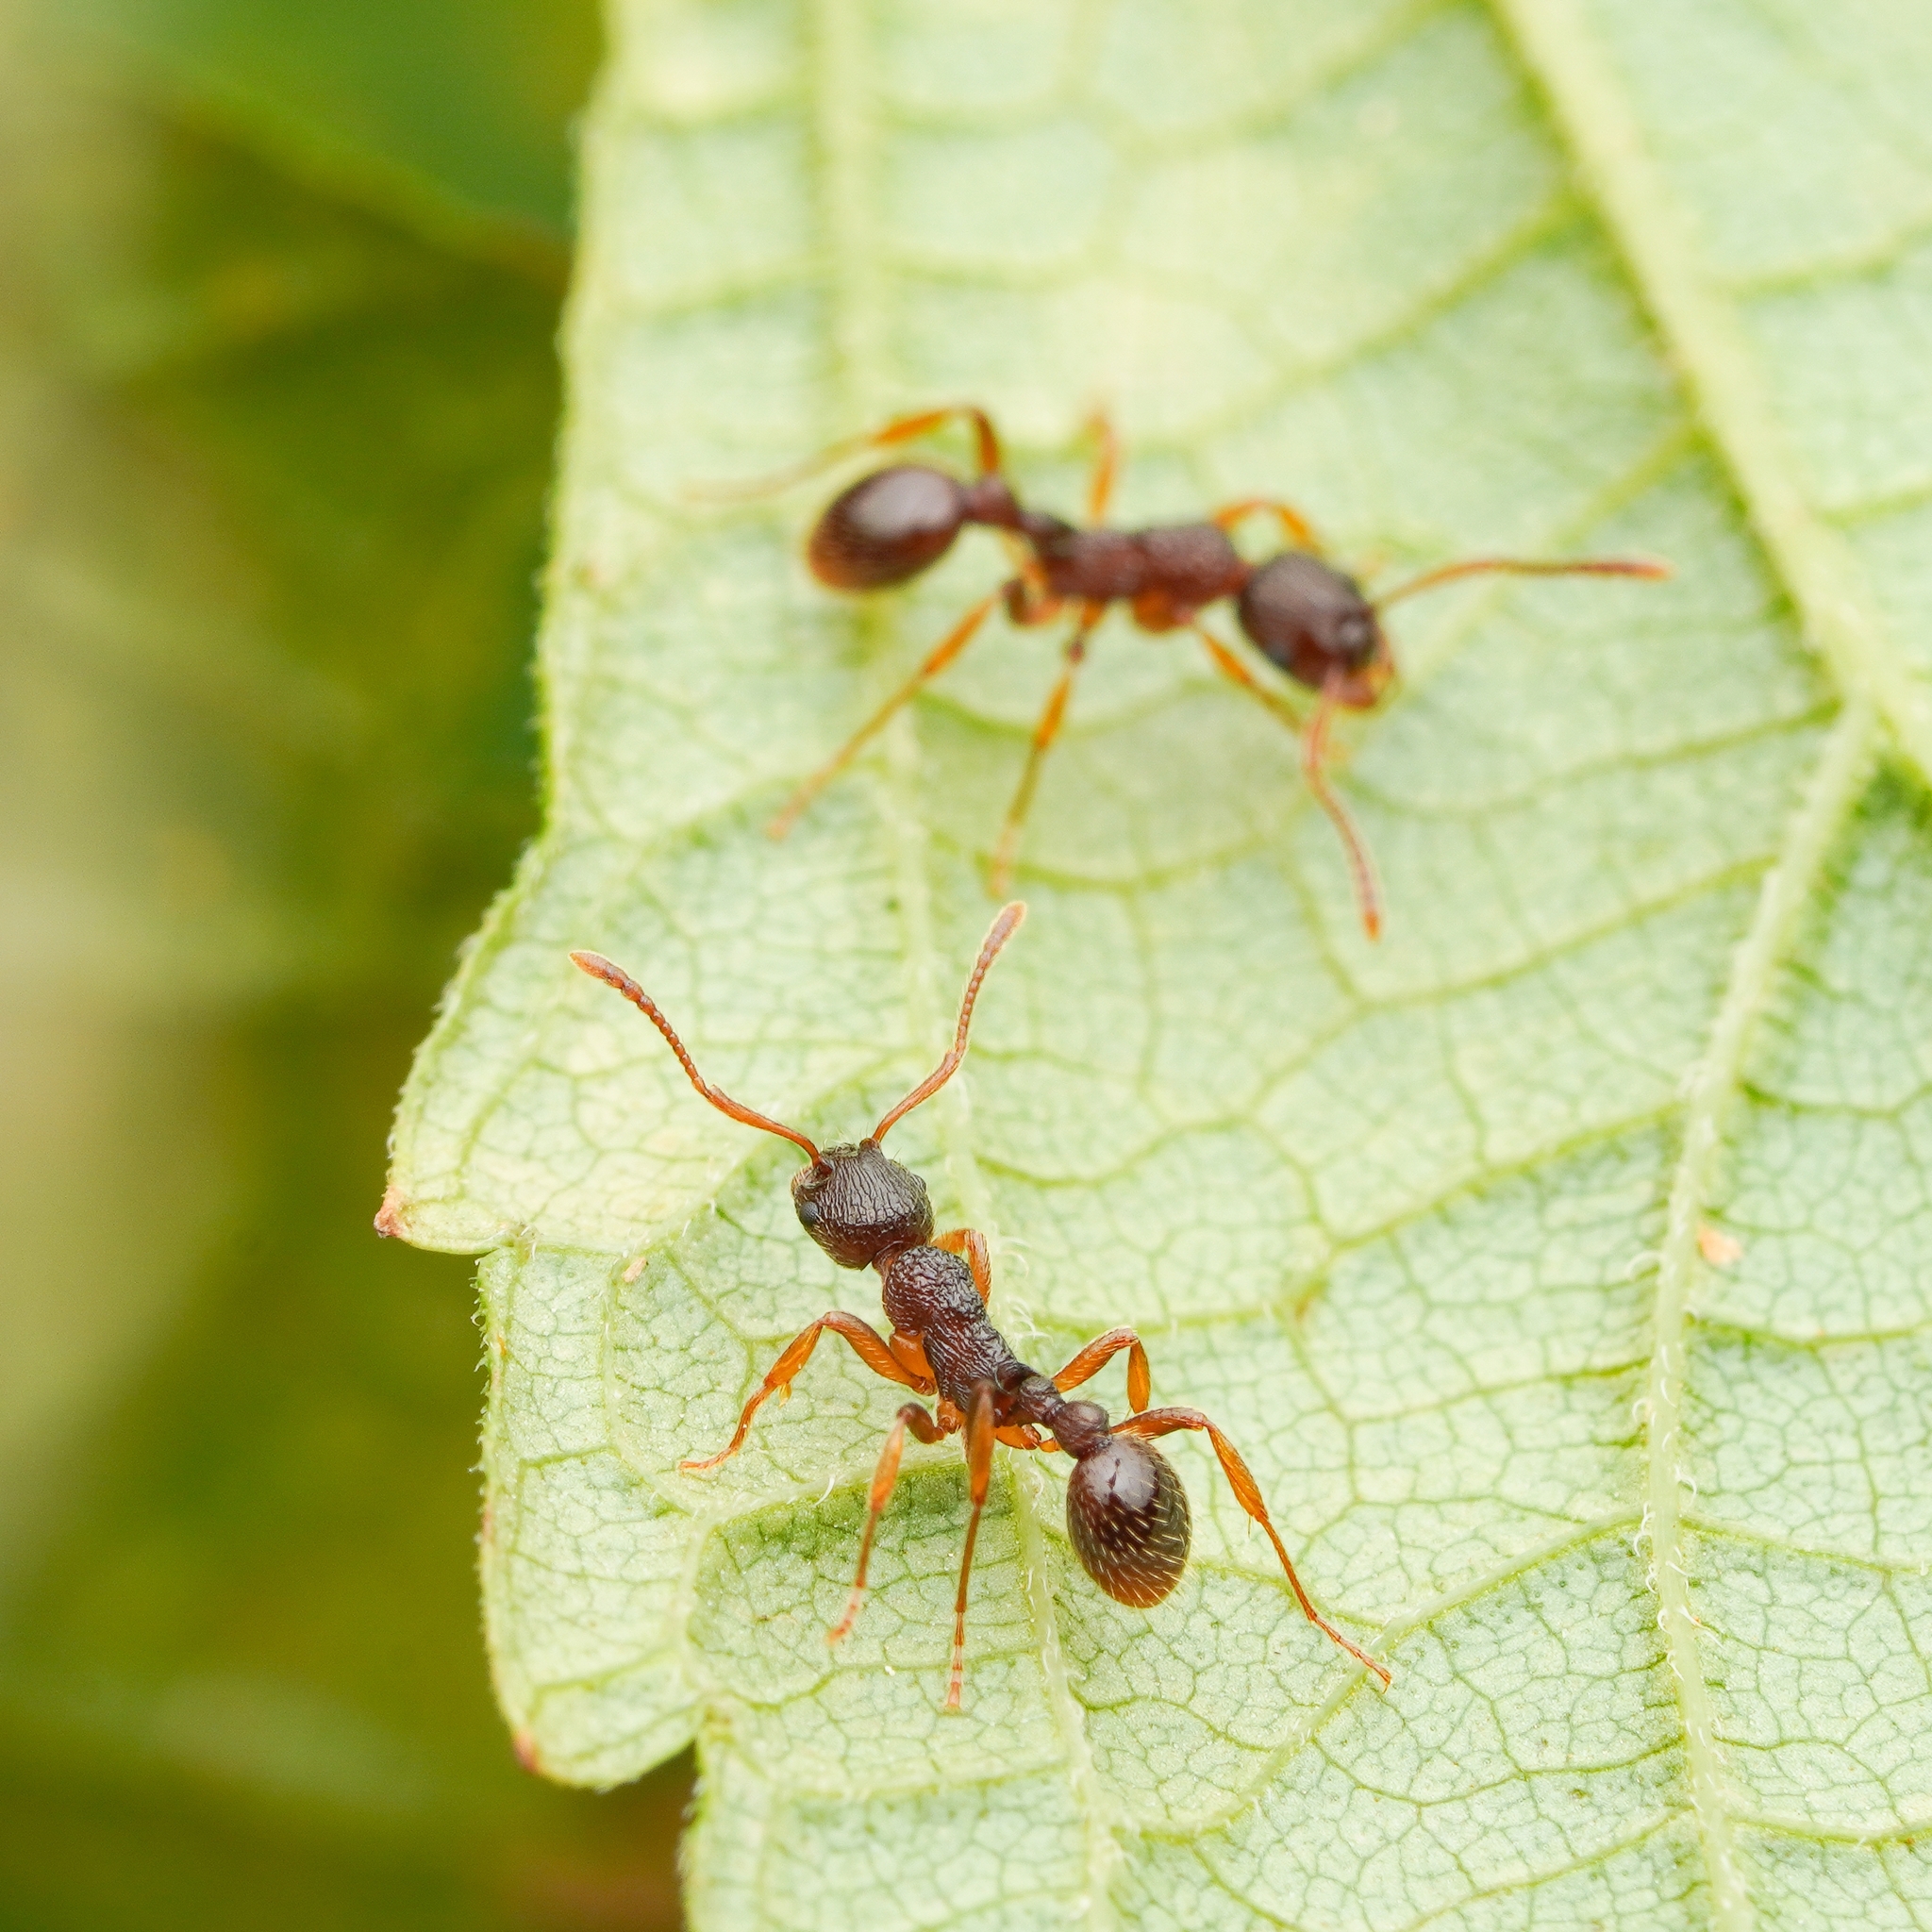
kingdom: Animalia
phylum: Arthropoda
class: Insecta
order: Hymenoptera
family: Formicidae
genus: Myrmica
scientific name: Myrmica ruginodis
